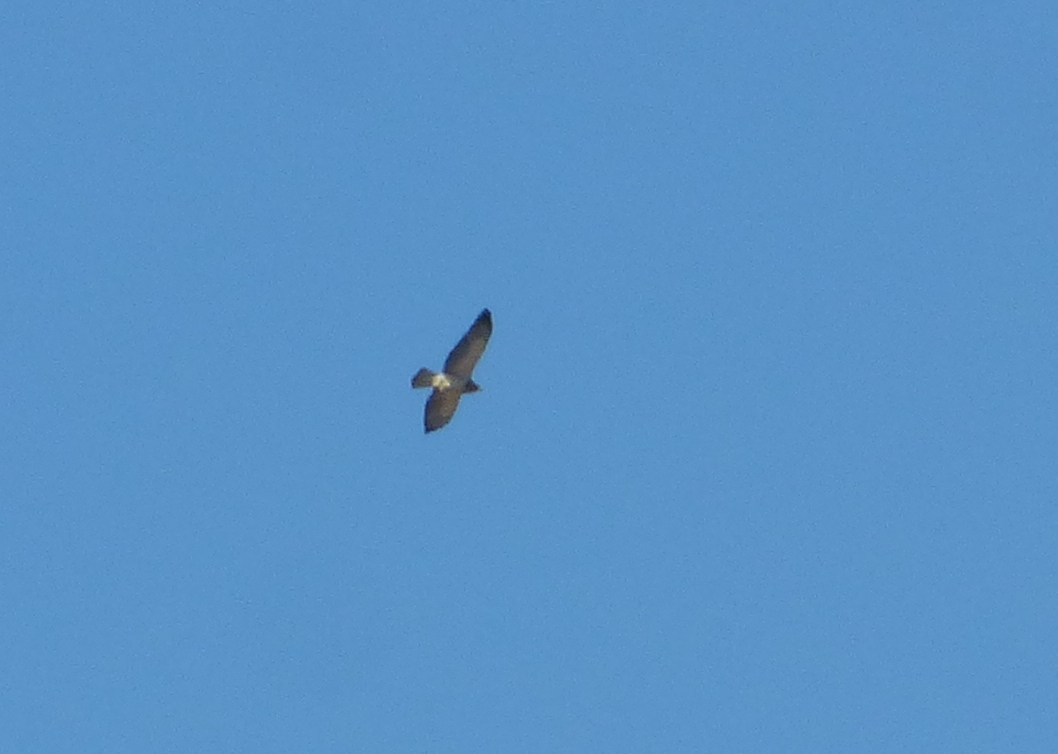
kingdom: Animalia
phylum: Chordata
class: Aves
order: Accipitriformes
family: Accipitridae
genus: Buteo
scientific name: Buteo swainsoni
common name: Swainson's hawk
